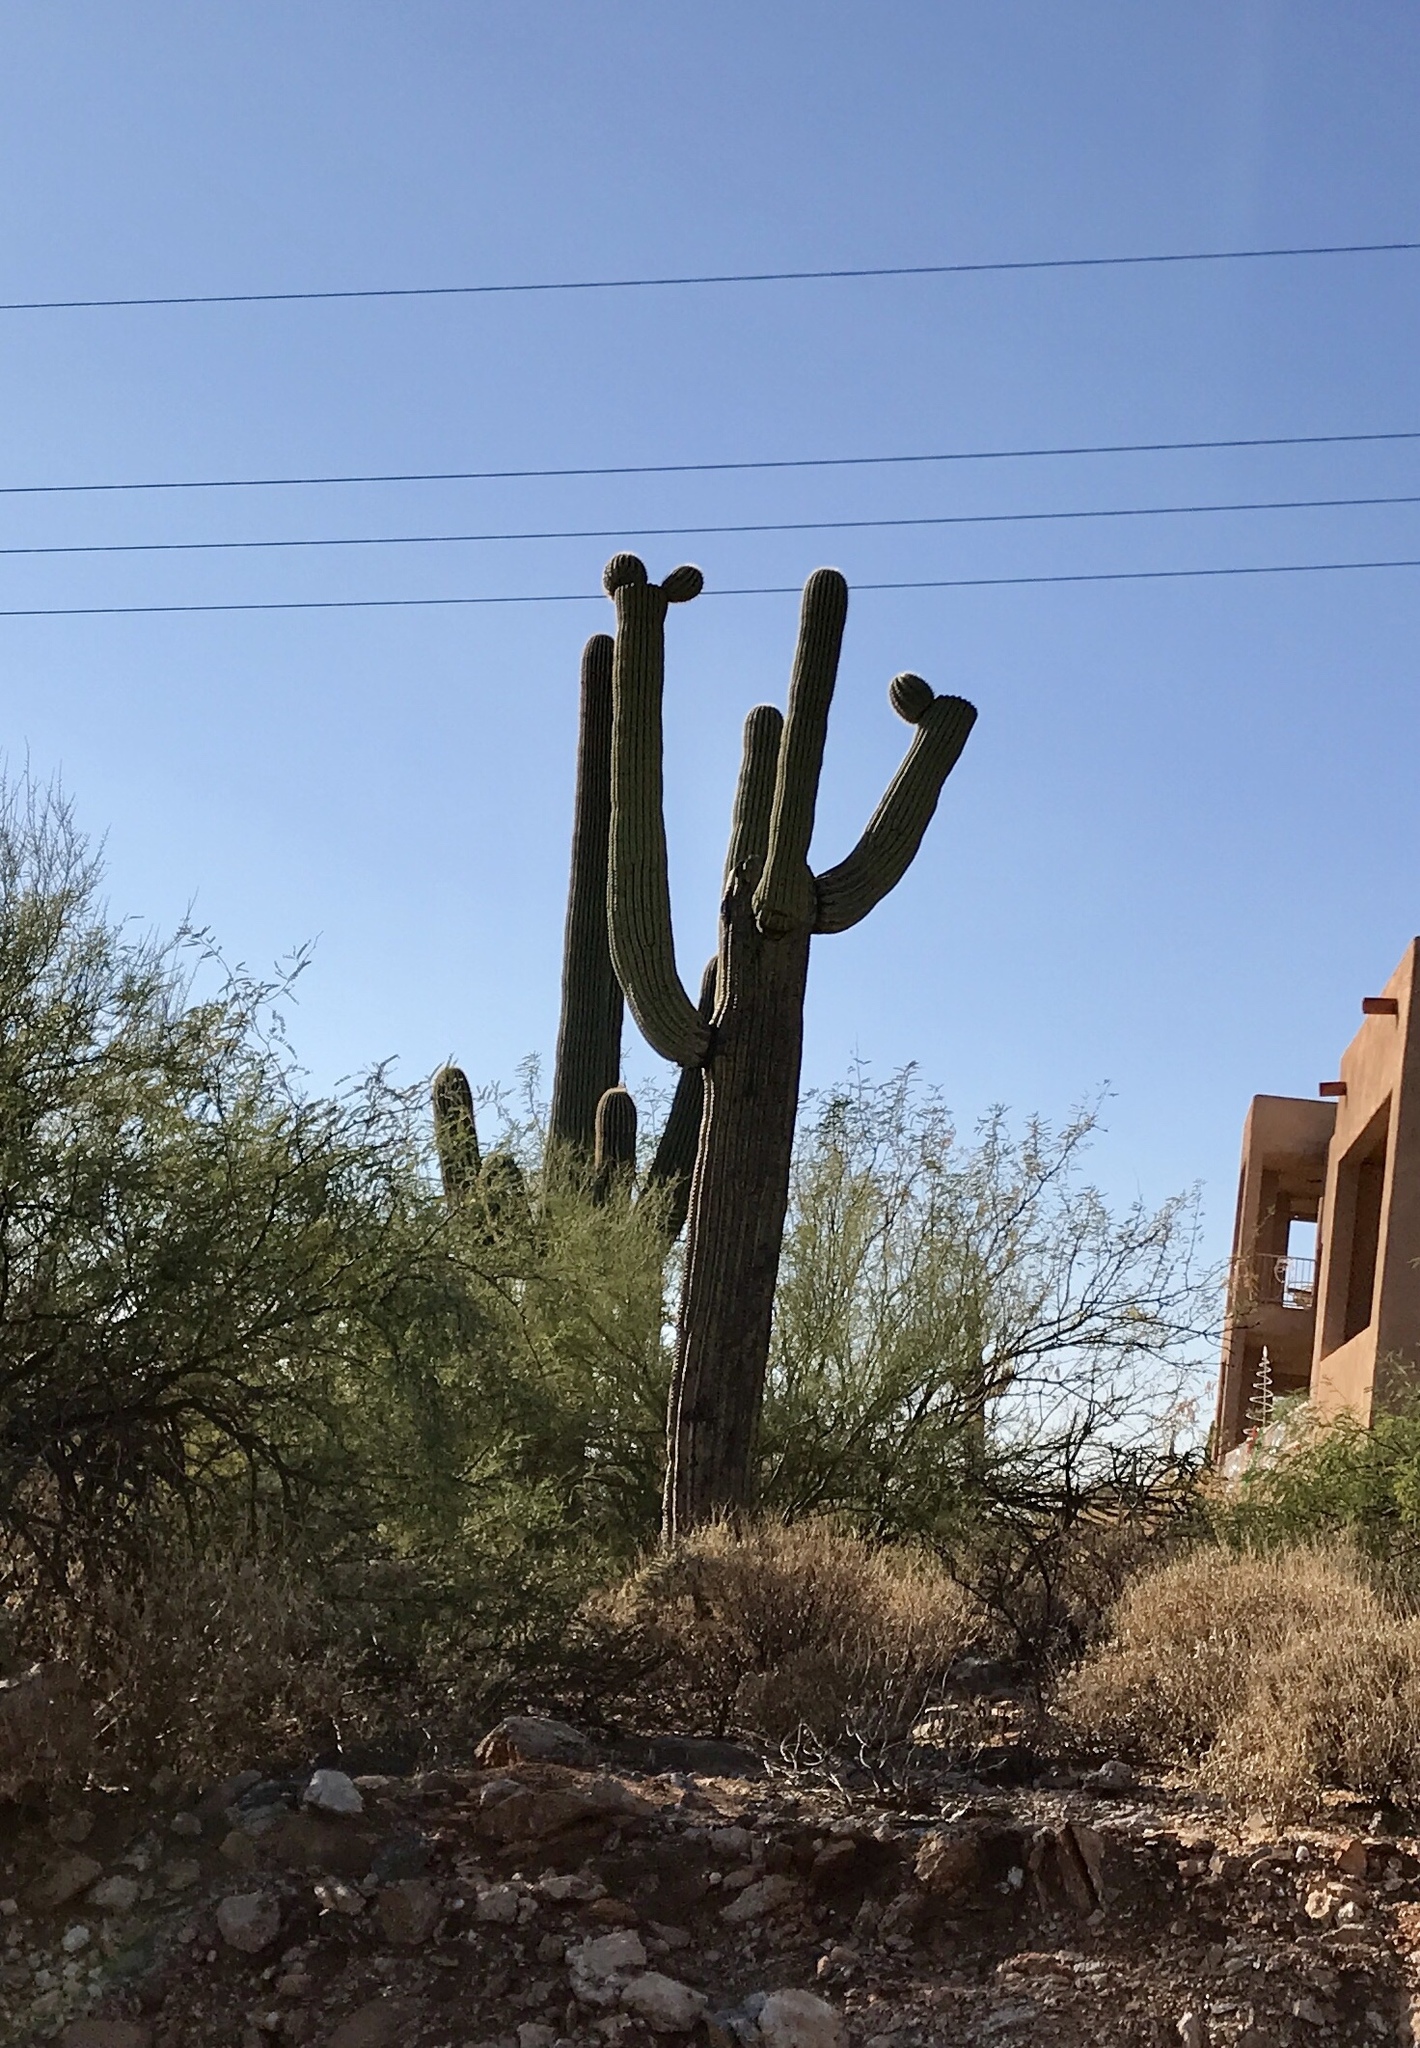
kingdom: Plantae
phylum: Tracheophyta
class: Magnoliopsida
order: Caryophyllales
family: Cactaceae
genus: Carnegiea
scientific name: Carnegiea gigantea
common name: Saguaro
